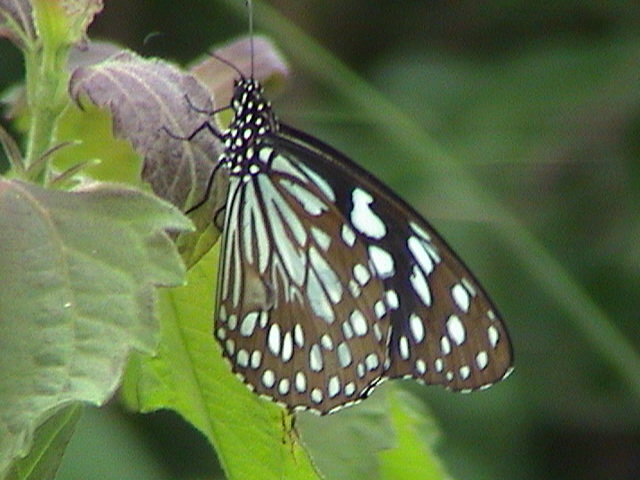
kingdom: Animalia
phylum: Arthropoda
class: Insecta
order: Lepidoptera
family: Nymphalidae
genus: Tirumala
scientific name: Tirumala limniace
